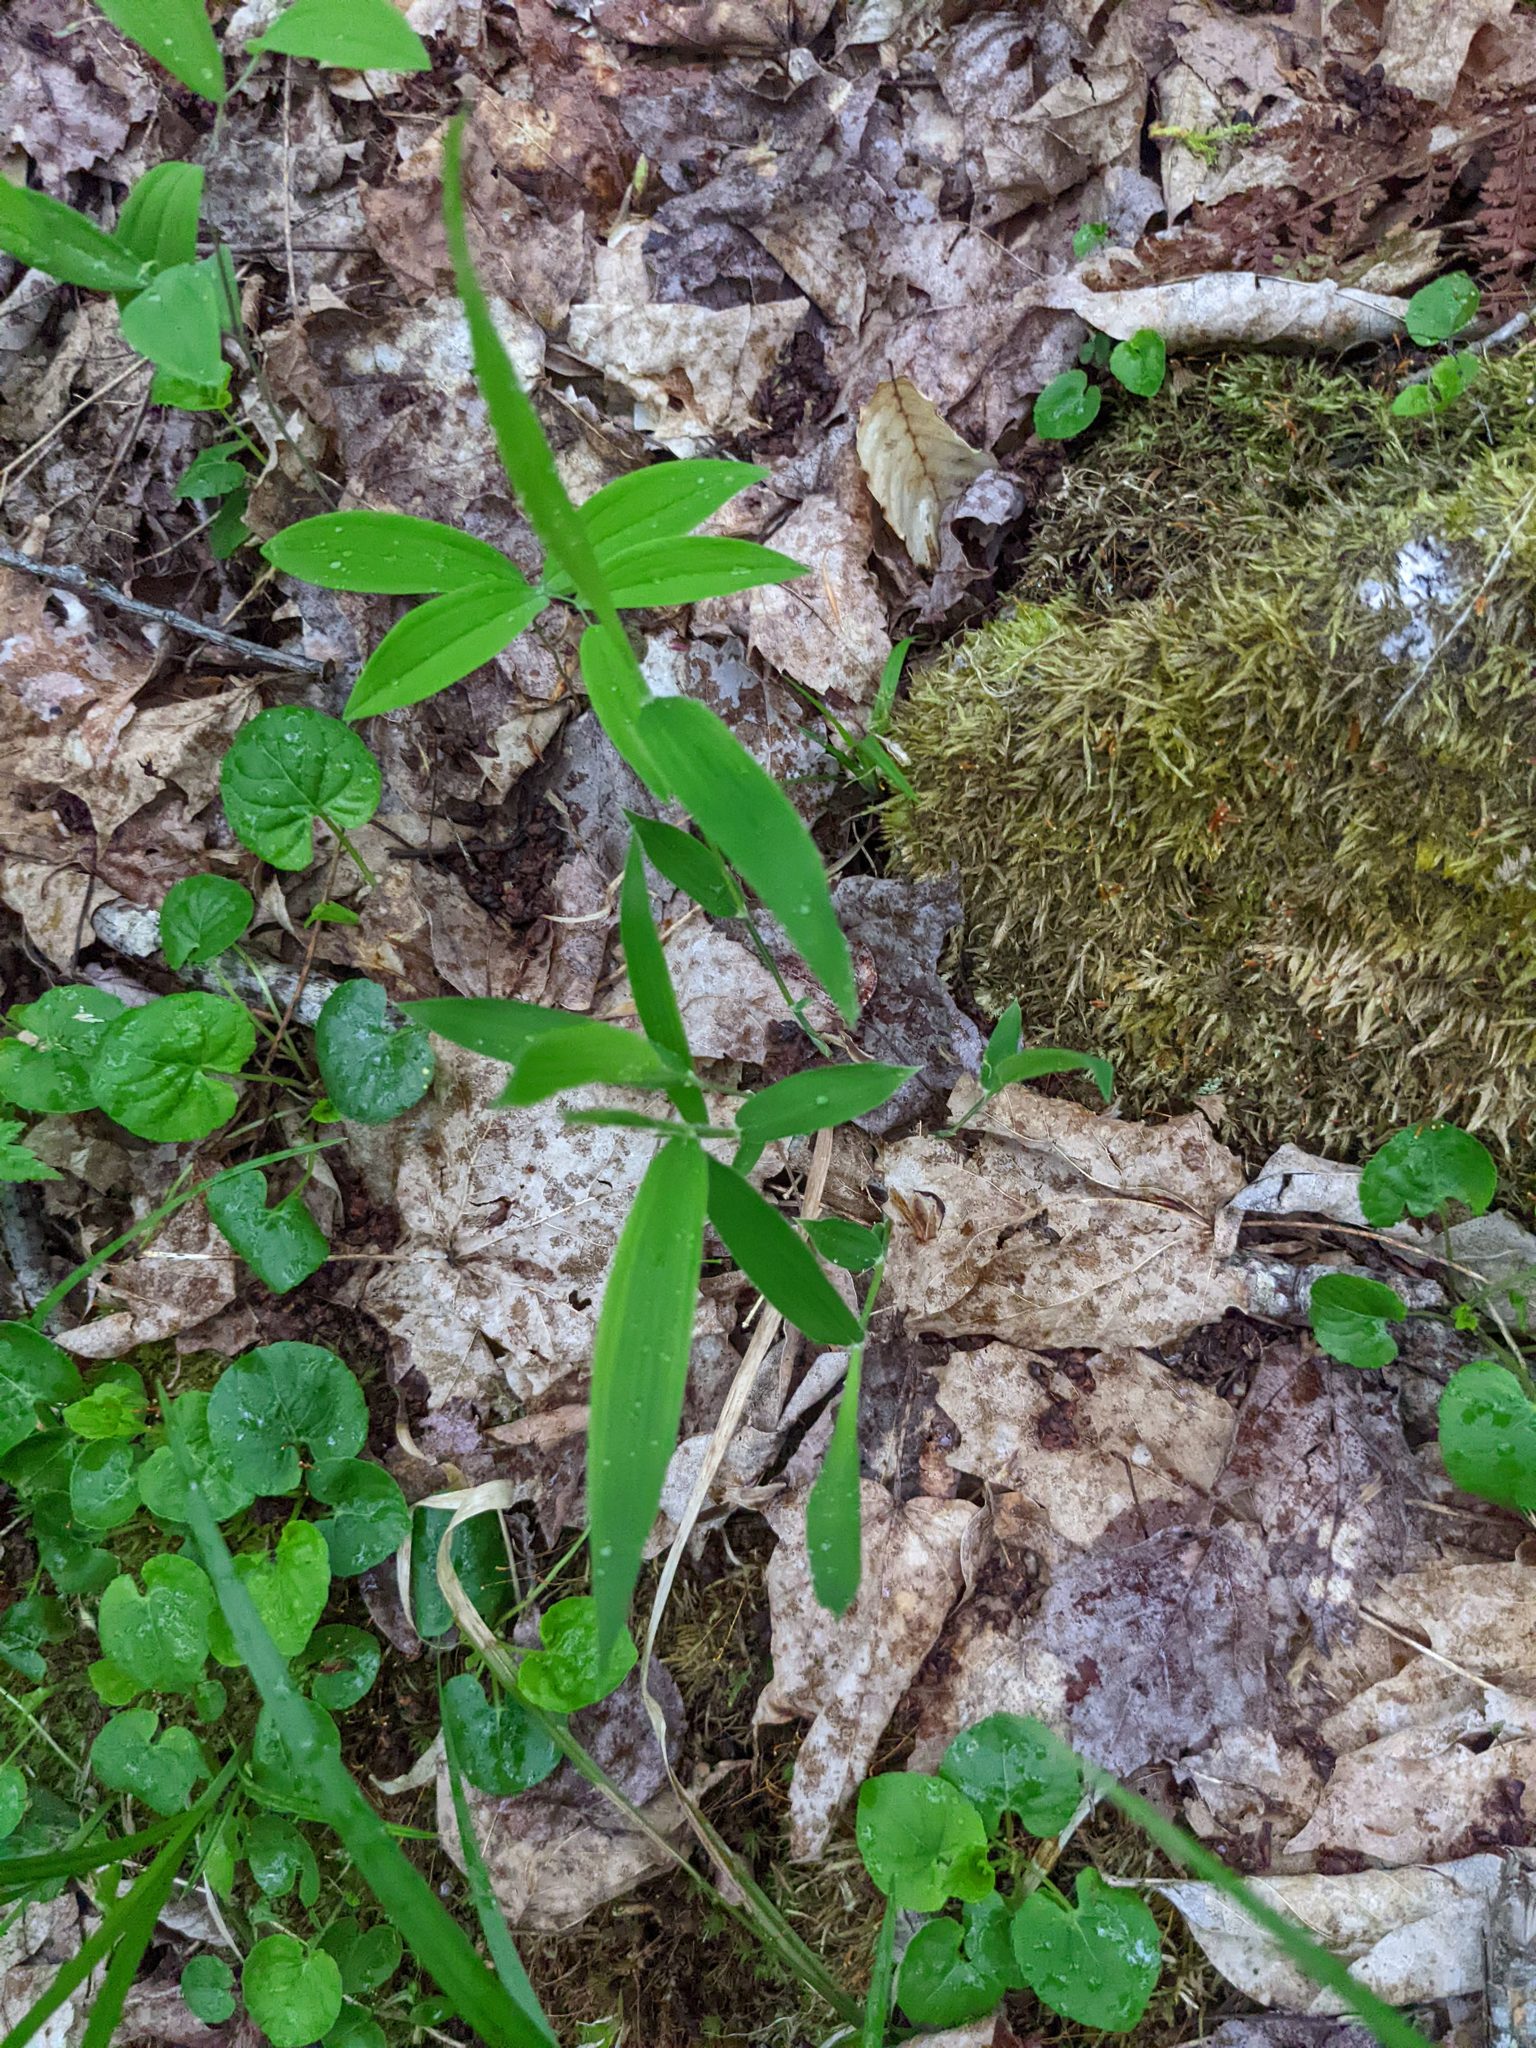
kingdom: Plantae
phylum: Tracheophyta
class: Liliopsida
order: Liliales
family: Colchicaceae
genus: Uvularia
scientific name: Uvularia sessilifolia
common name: Straw-lily
